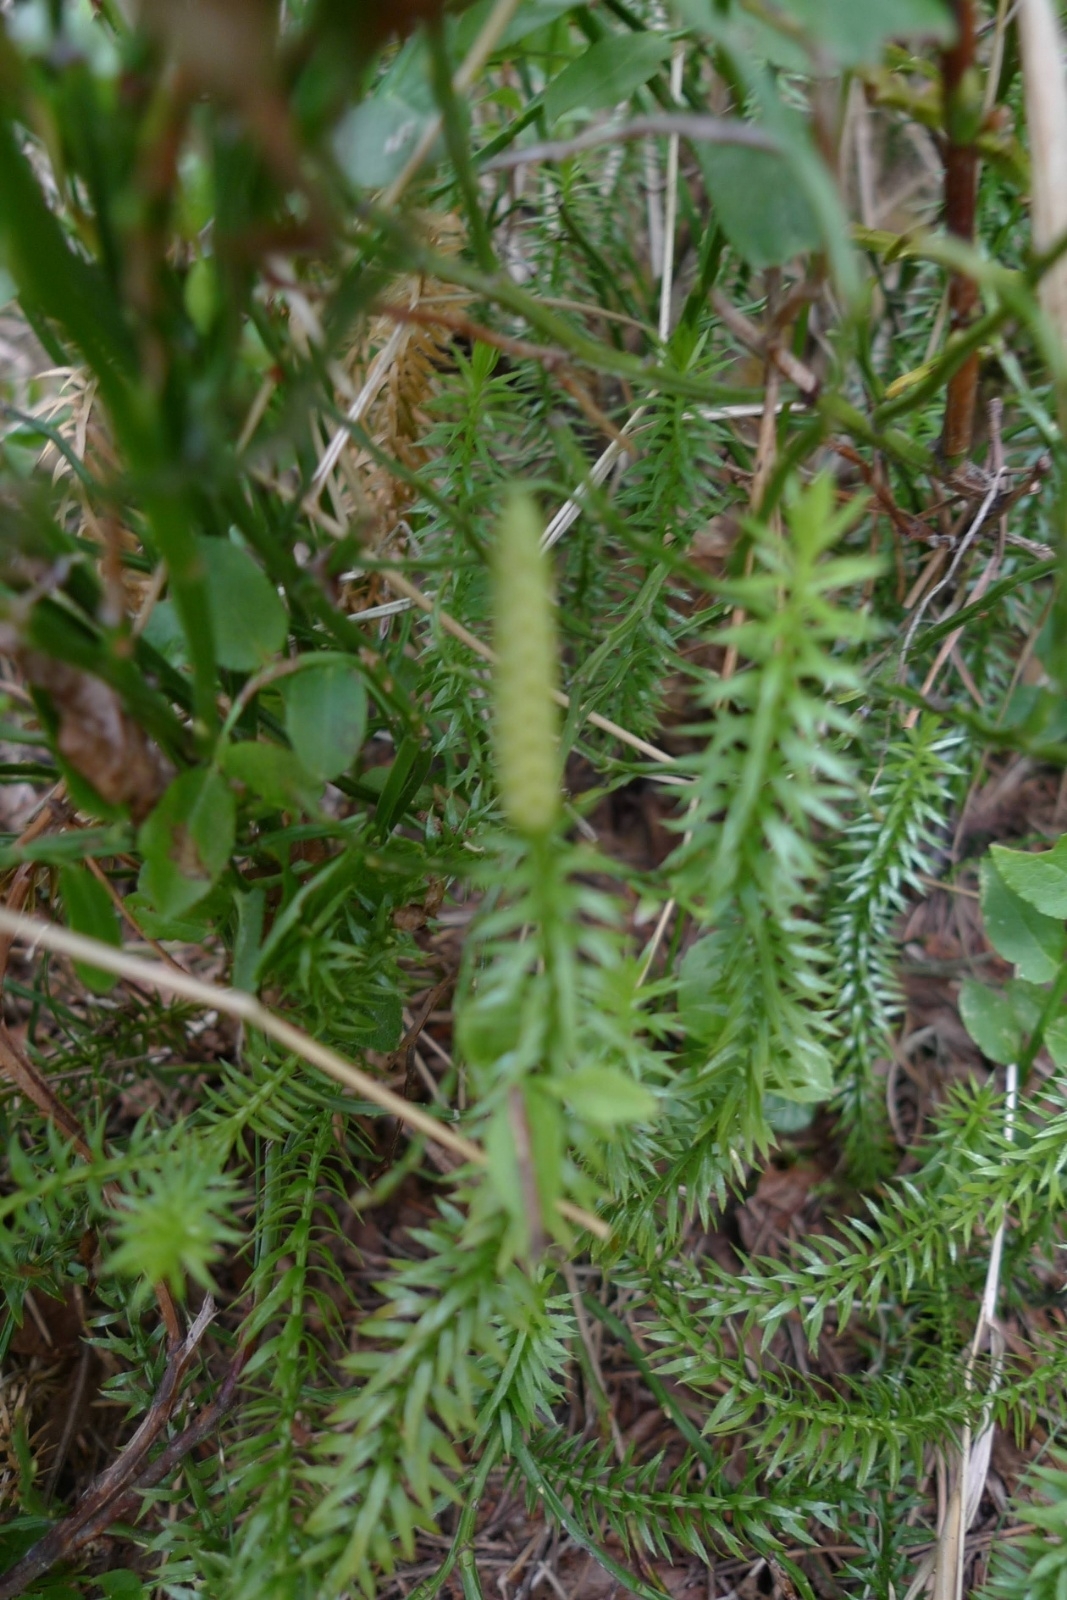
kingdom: Plantae
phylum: Tracheophyta
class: Lycopodiopsida
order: Lycopodiales
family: Lycopodiaceae
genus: Spinulum
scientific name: Spinulum annotinum
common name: Interrupted club-moss
